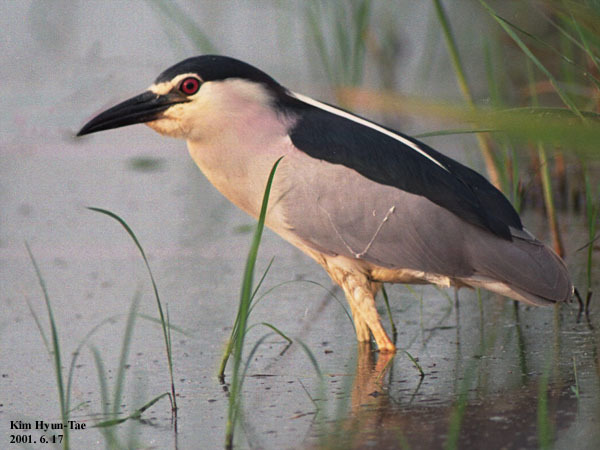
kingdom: Animalia
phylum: Chordata
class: Aves
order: Pelecaniformes
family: Ardeidae
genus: Nycticorax
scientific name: Nycticorax nycticorax
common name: Black-crowned night heron
